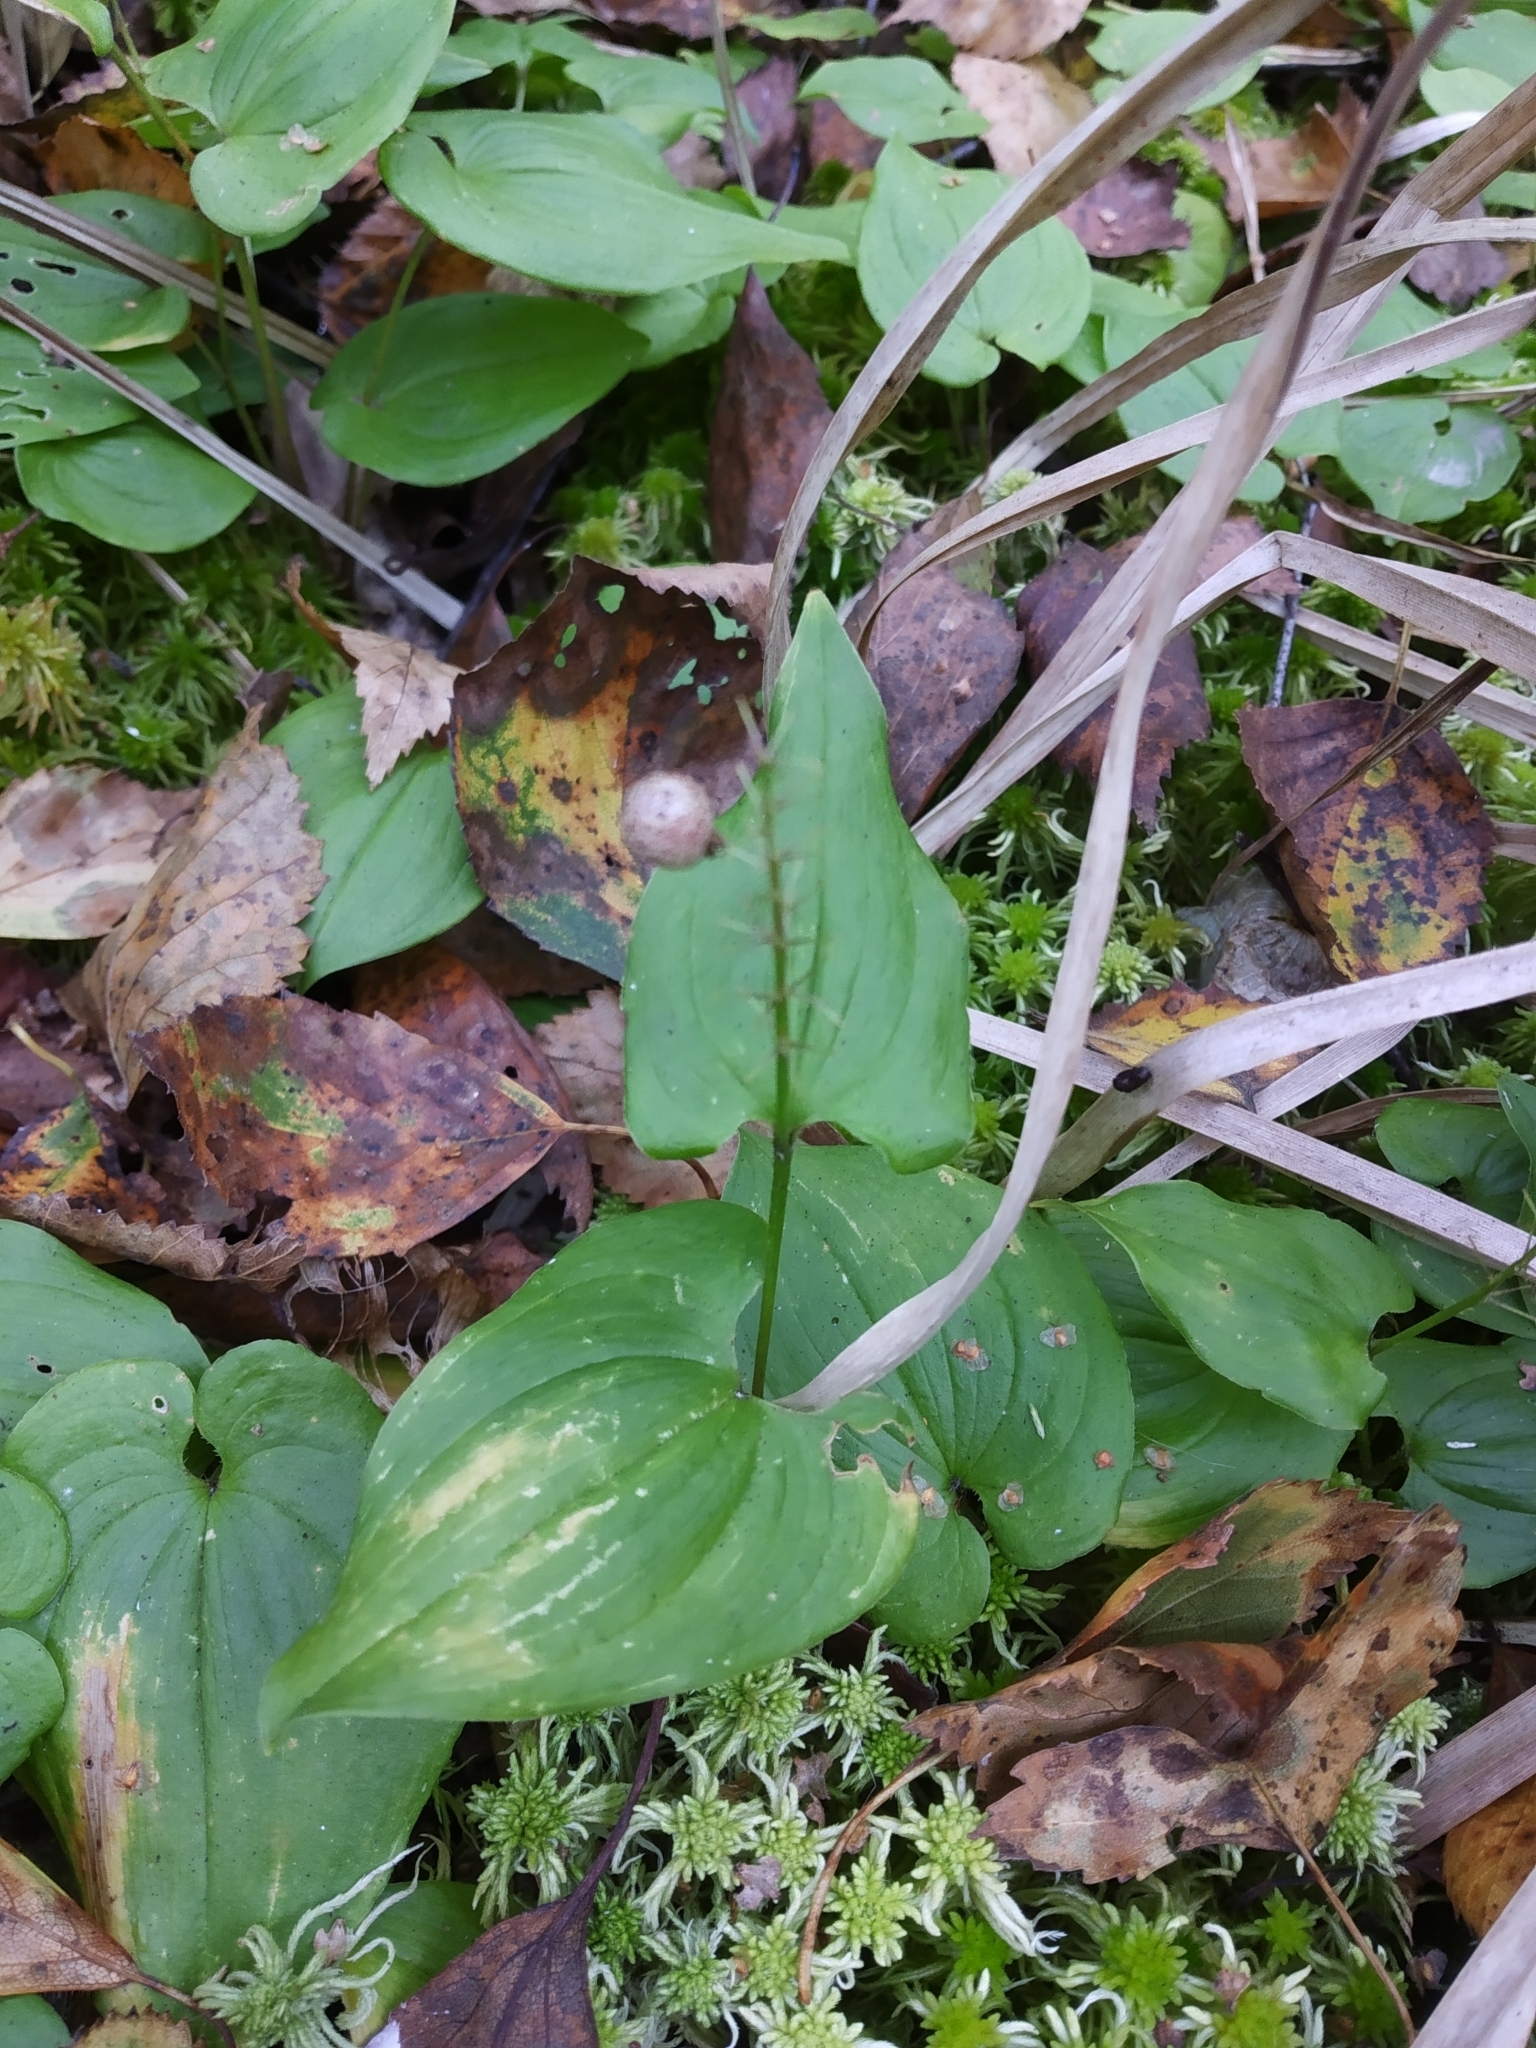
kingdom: Plantae
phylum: Tracheophyta
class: Liliopsida
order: Asparagales
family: Asparagaceae
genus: Maianthemum
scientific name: Maianthemum bifolium
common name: May lily
